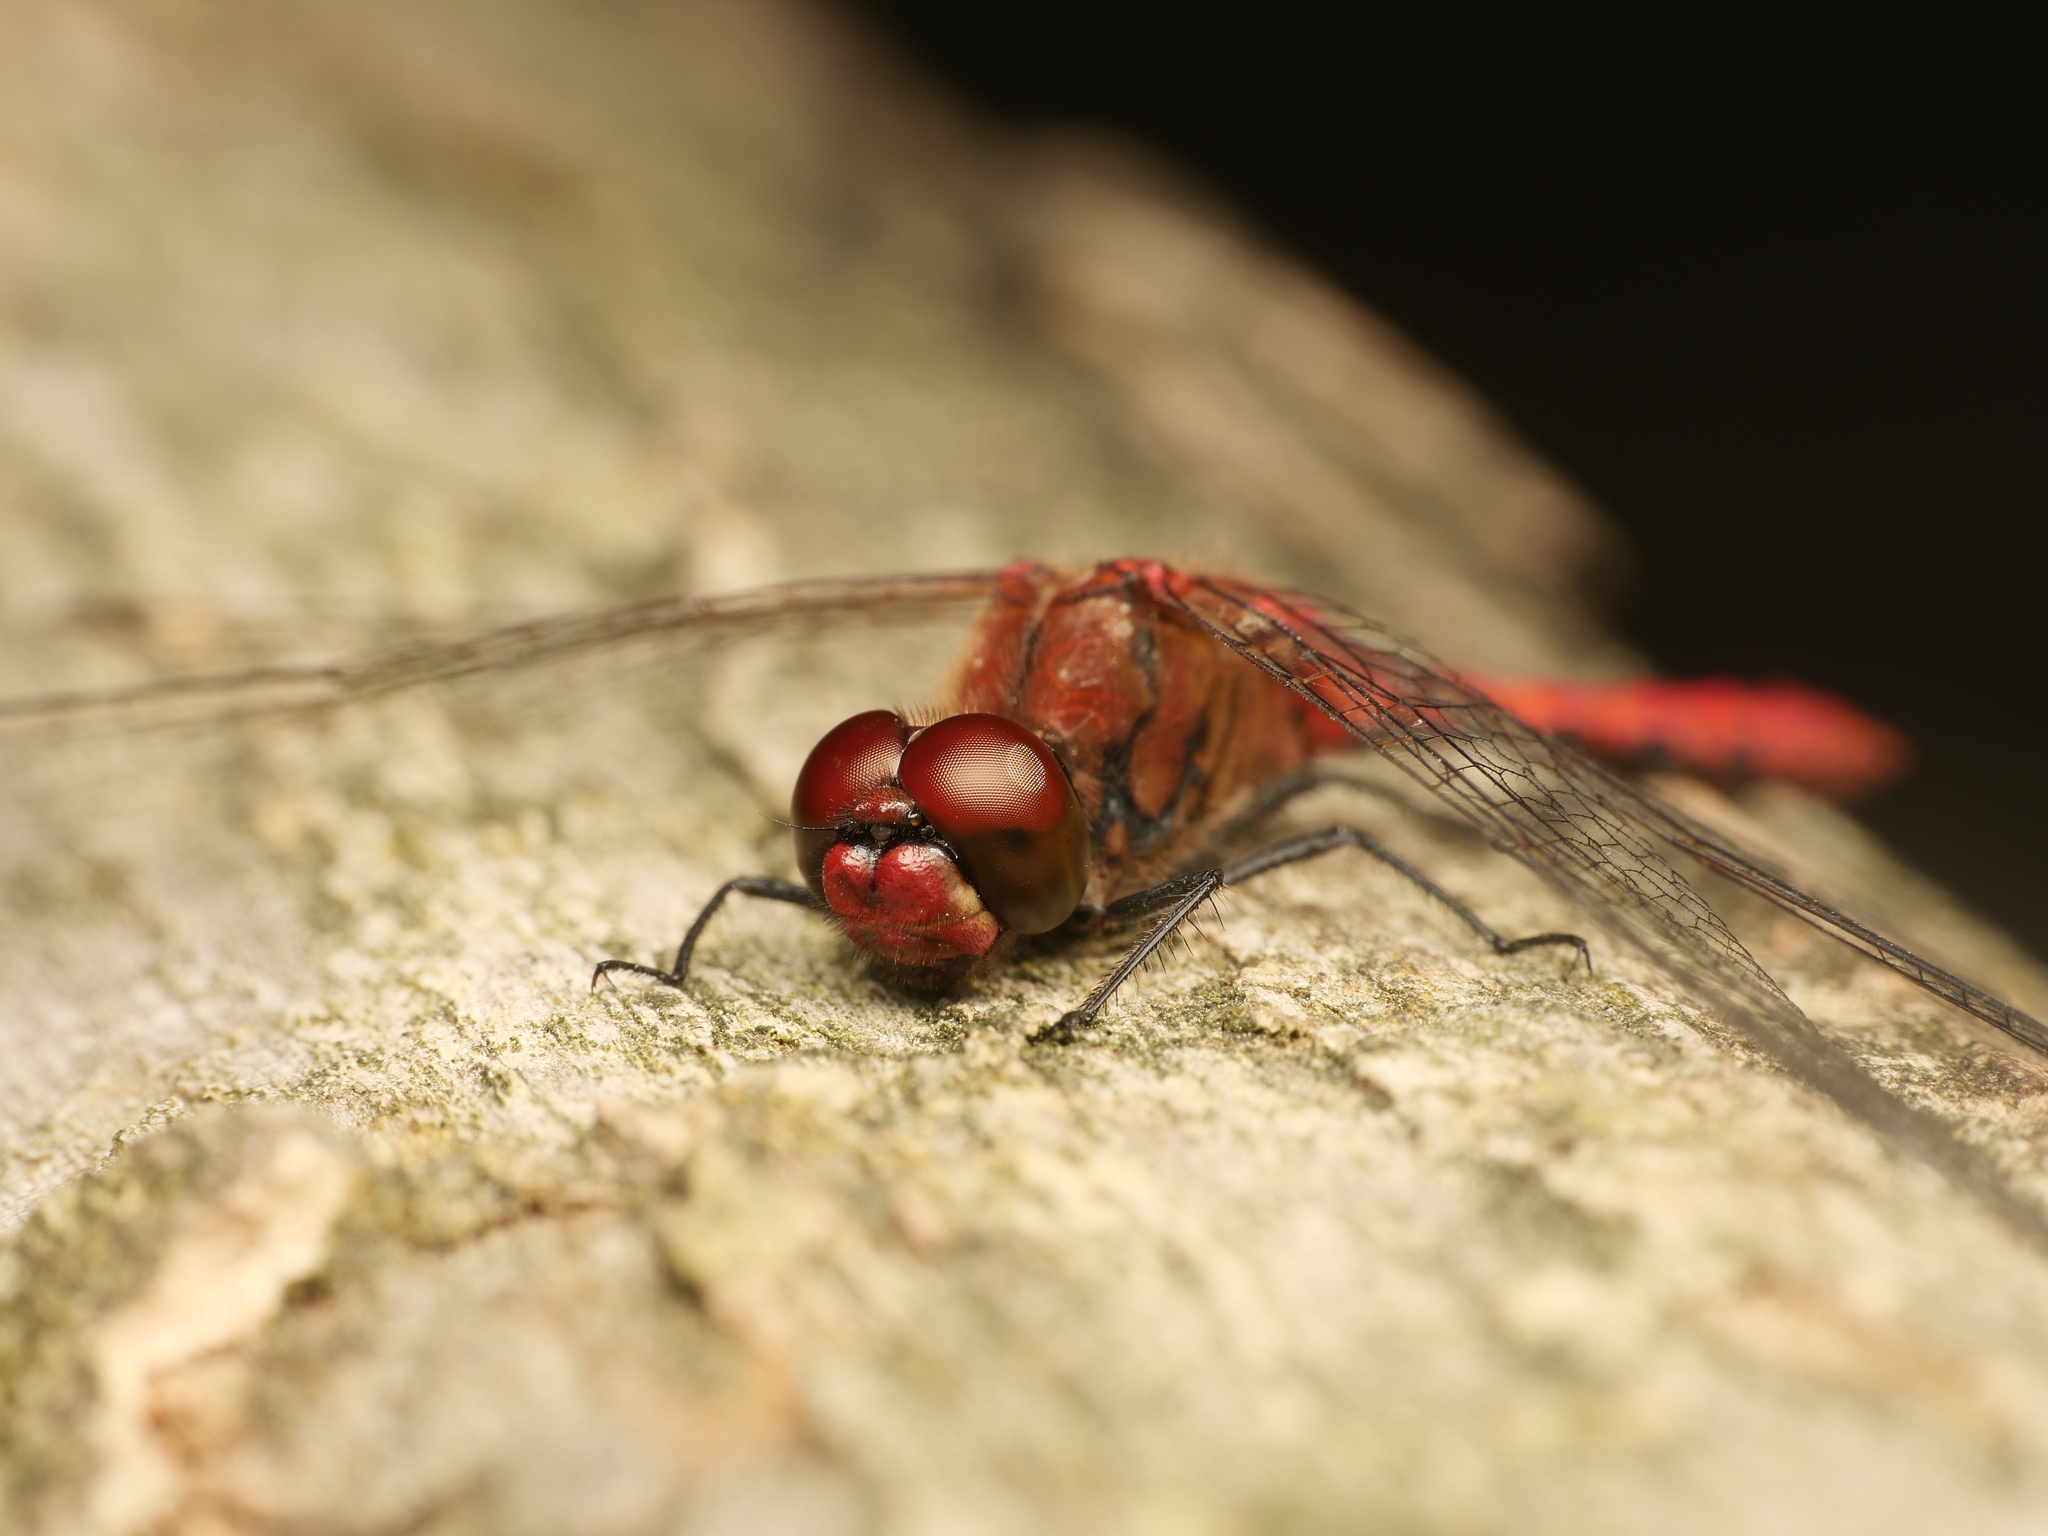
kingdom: Animalia
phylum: Arthropoda
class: Insecta
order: Odonata
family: Libellulidae
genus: Sympetrum
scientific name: Sympetrum sanguineum
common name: Ruddy darter
